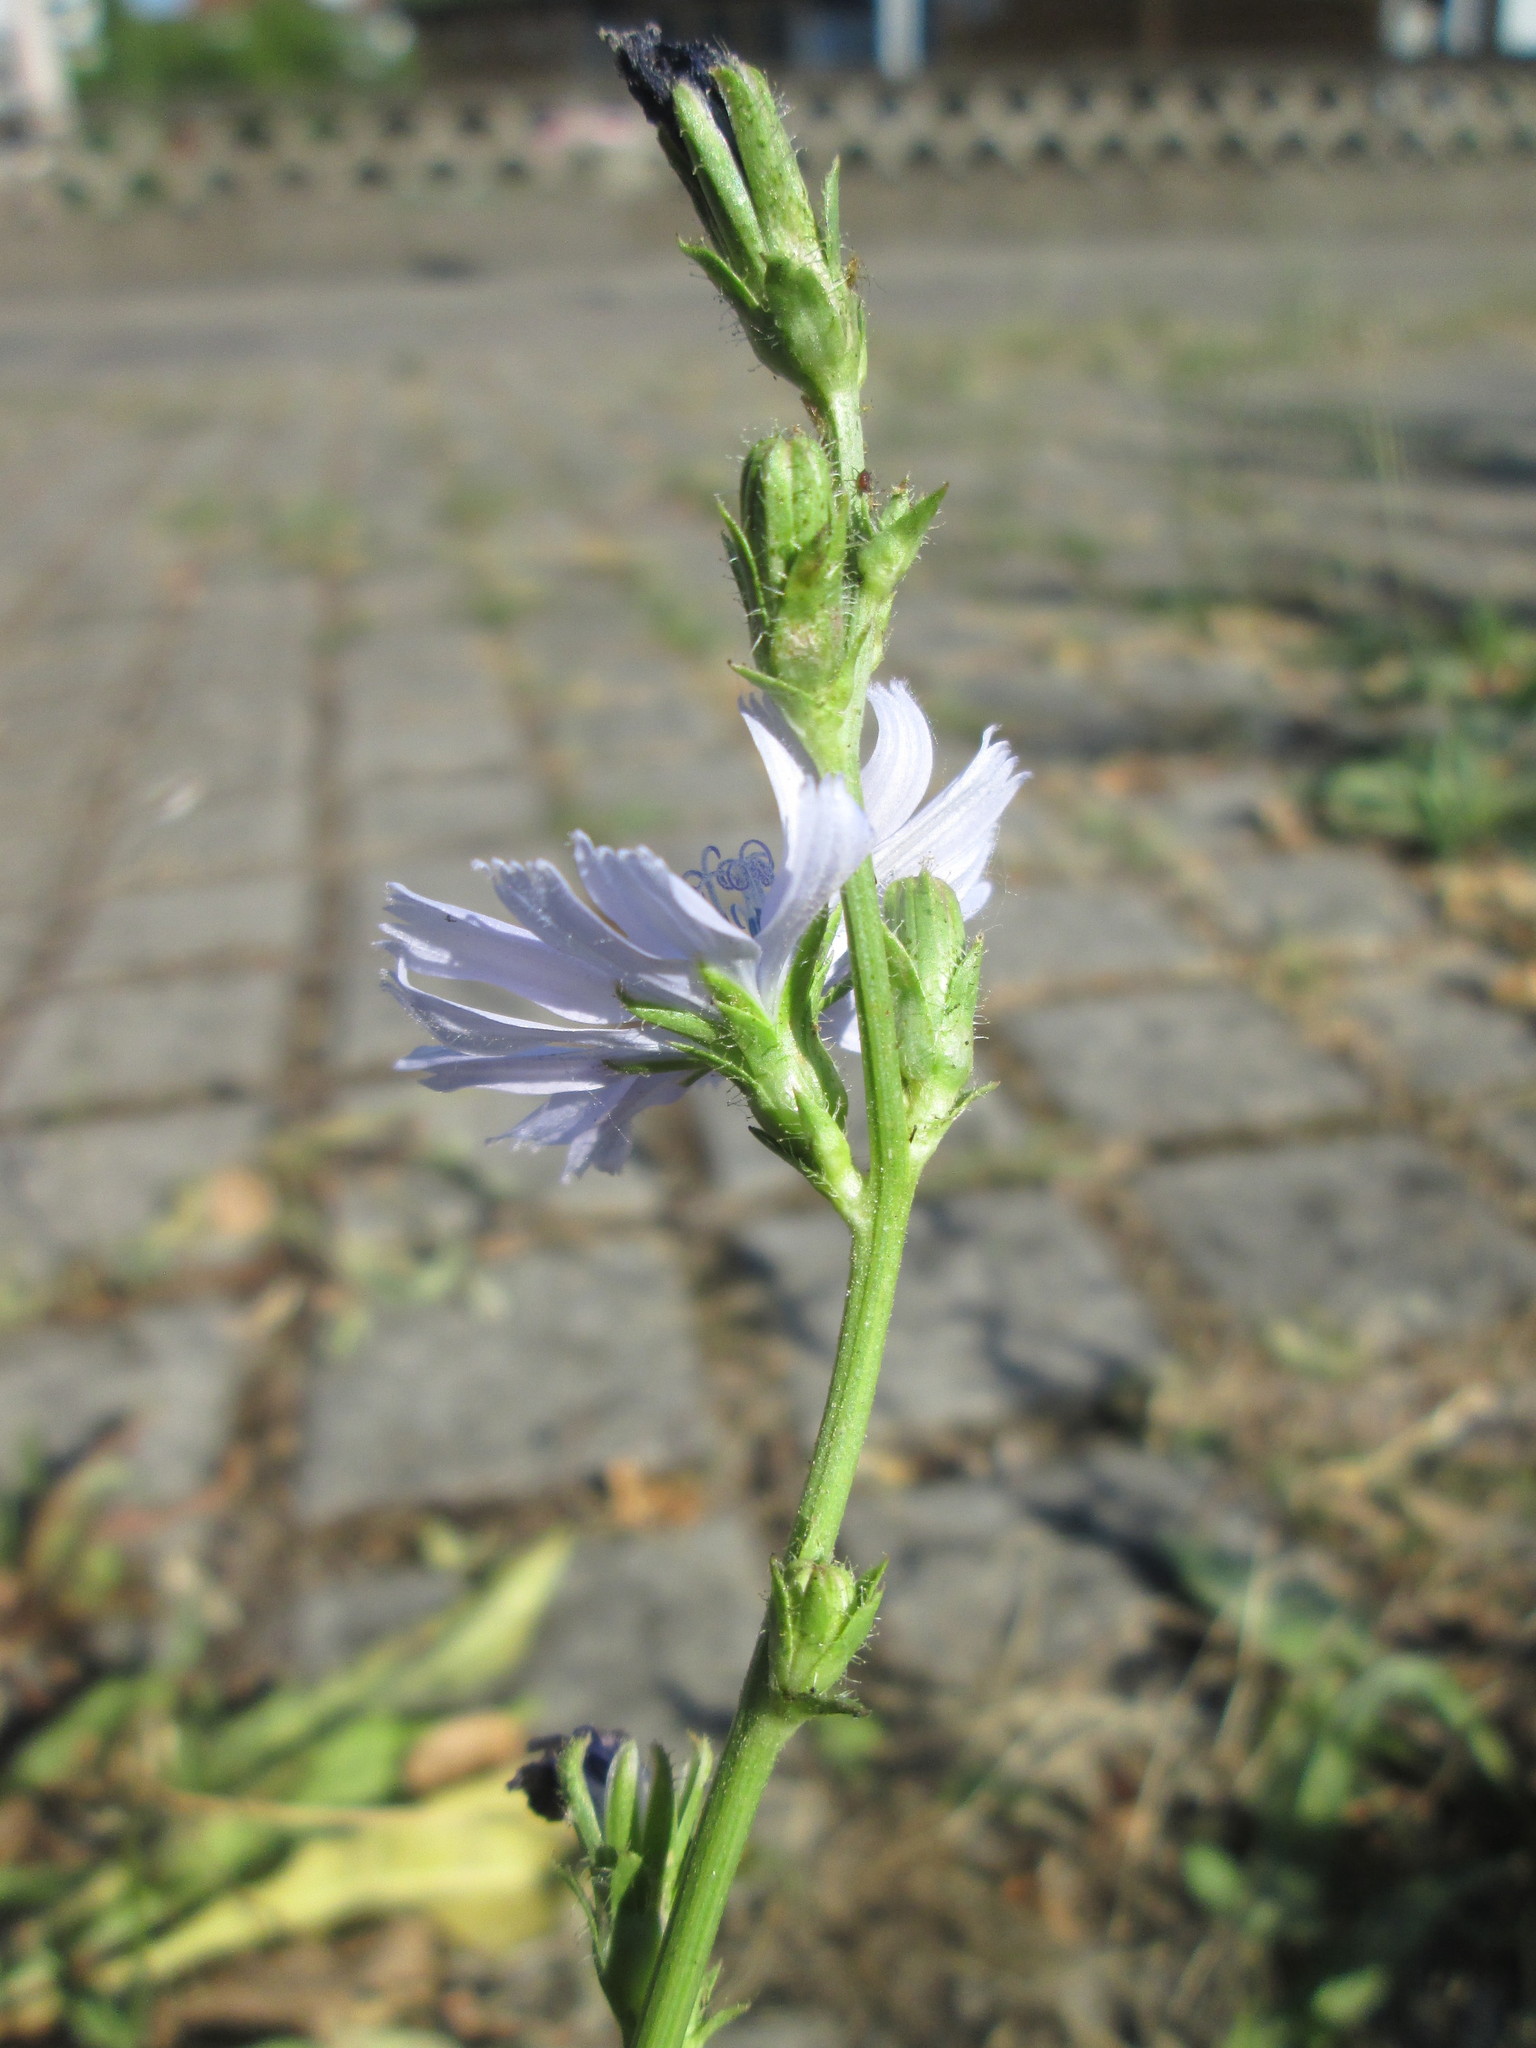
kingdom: Plantae
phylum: Tracheophyta
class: Magnoliopsida
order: Asterales
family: Asteraceae
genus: Cichorium
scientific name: Cichorium intybus
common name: Chicory
